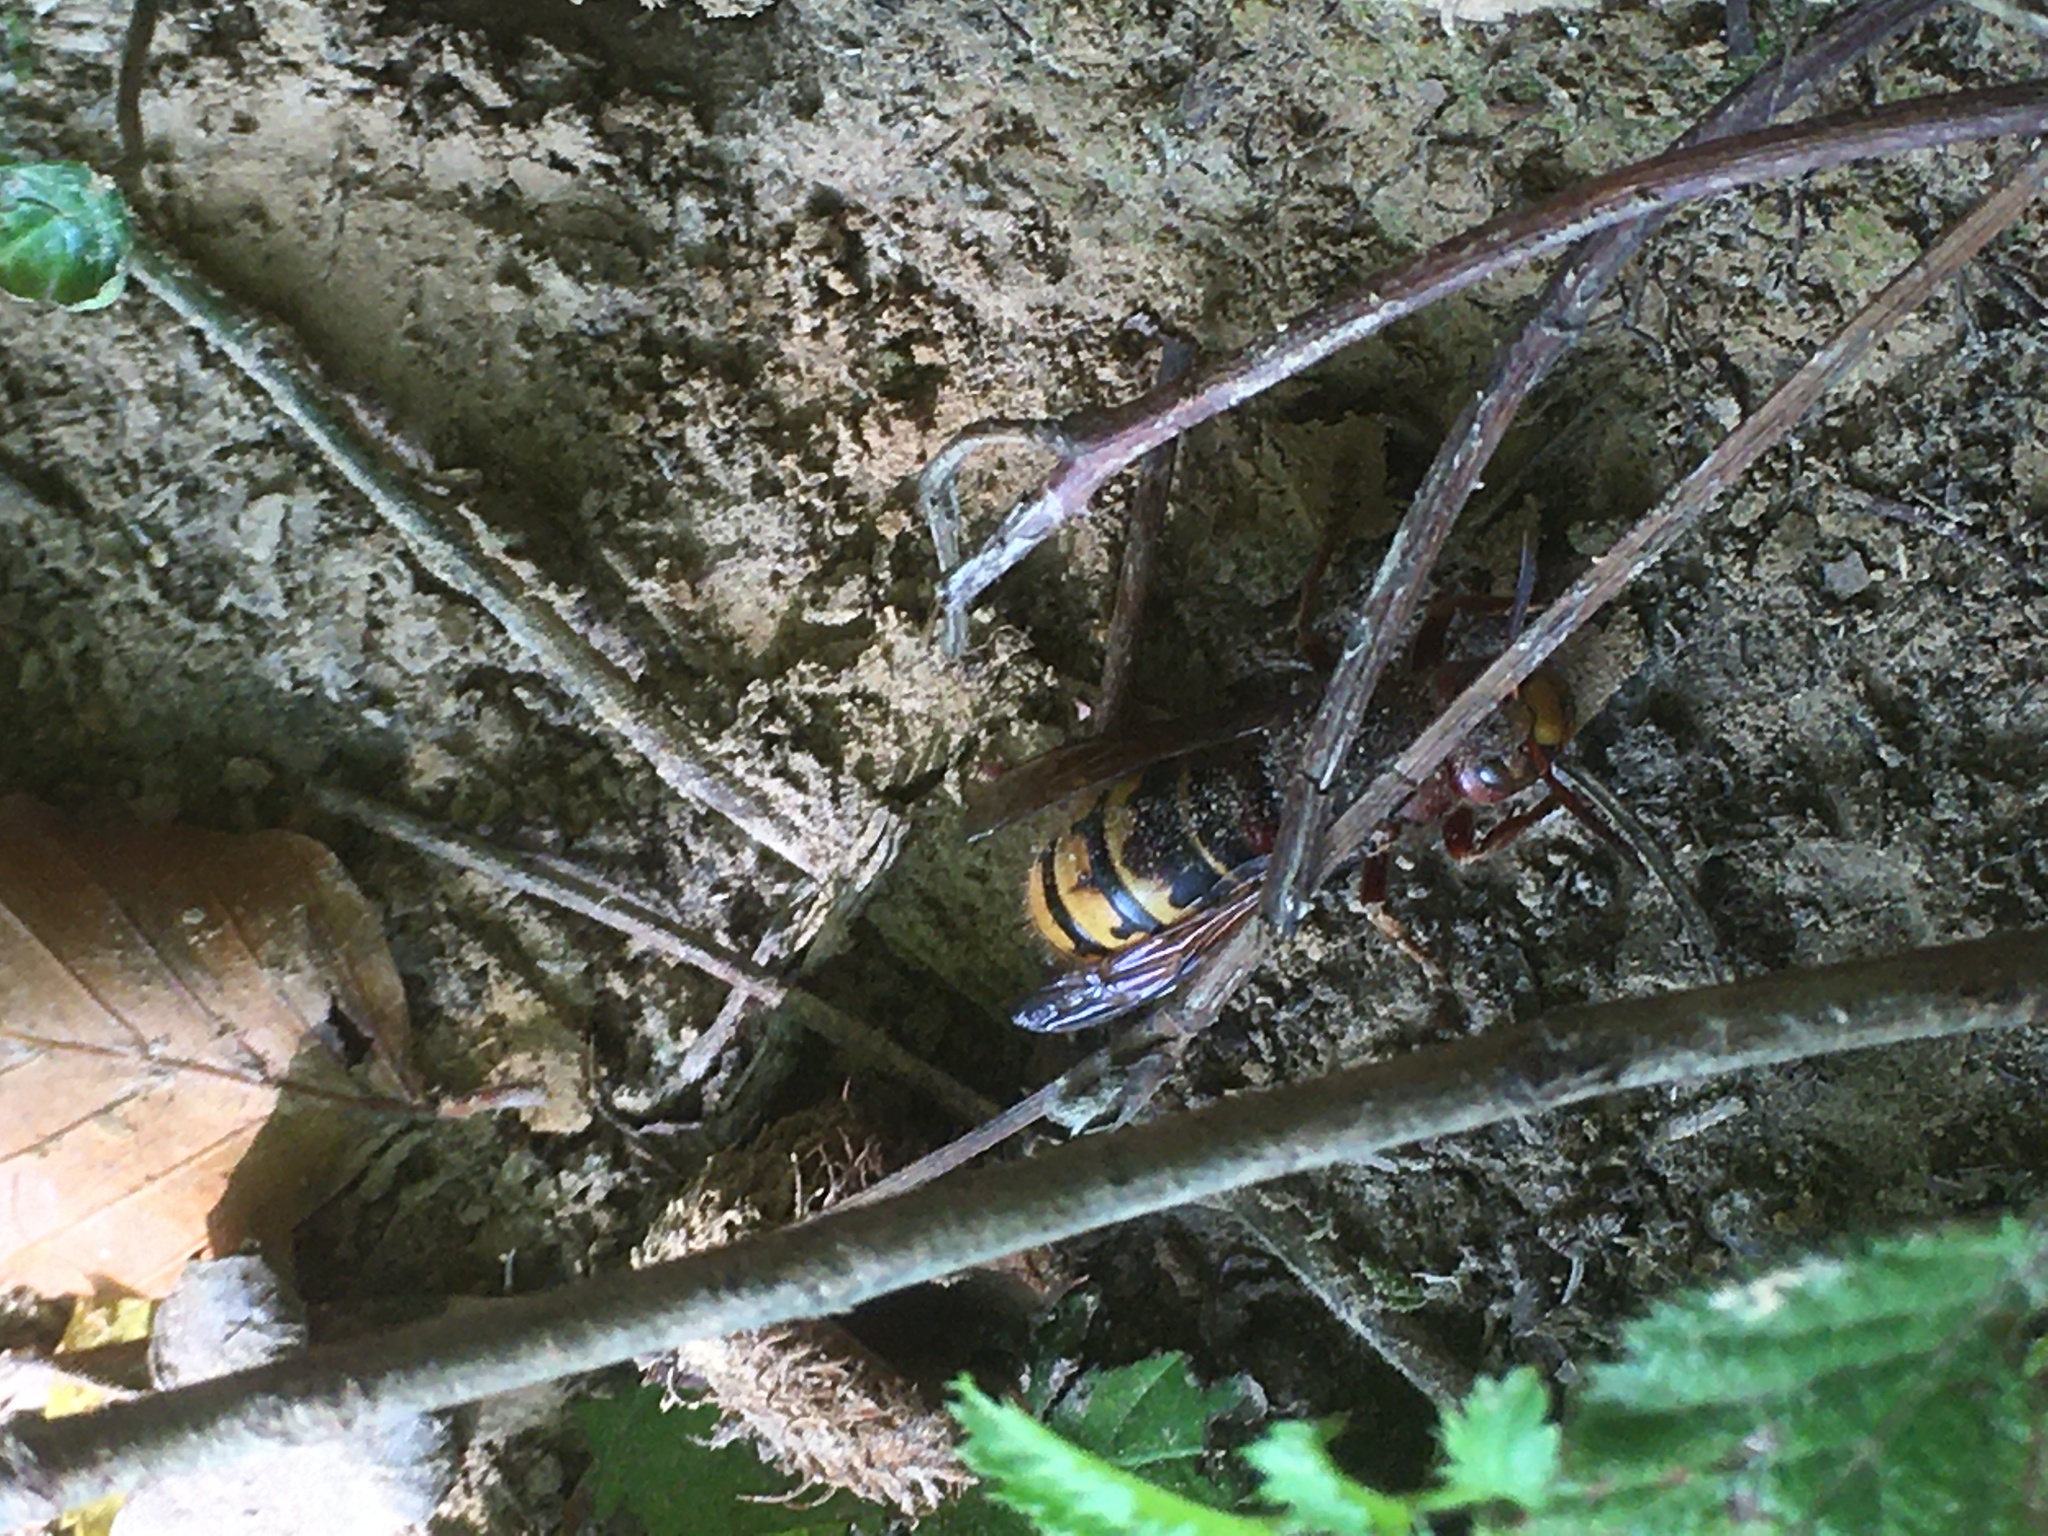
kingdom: Animalia
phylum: Arthropoda
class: Insecta
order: Hymenoptera
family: Vespidae
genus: Vespa
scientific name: Vespa crabro
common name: Hornet
